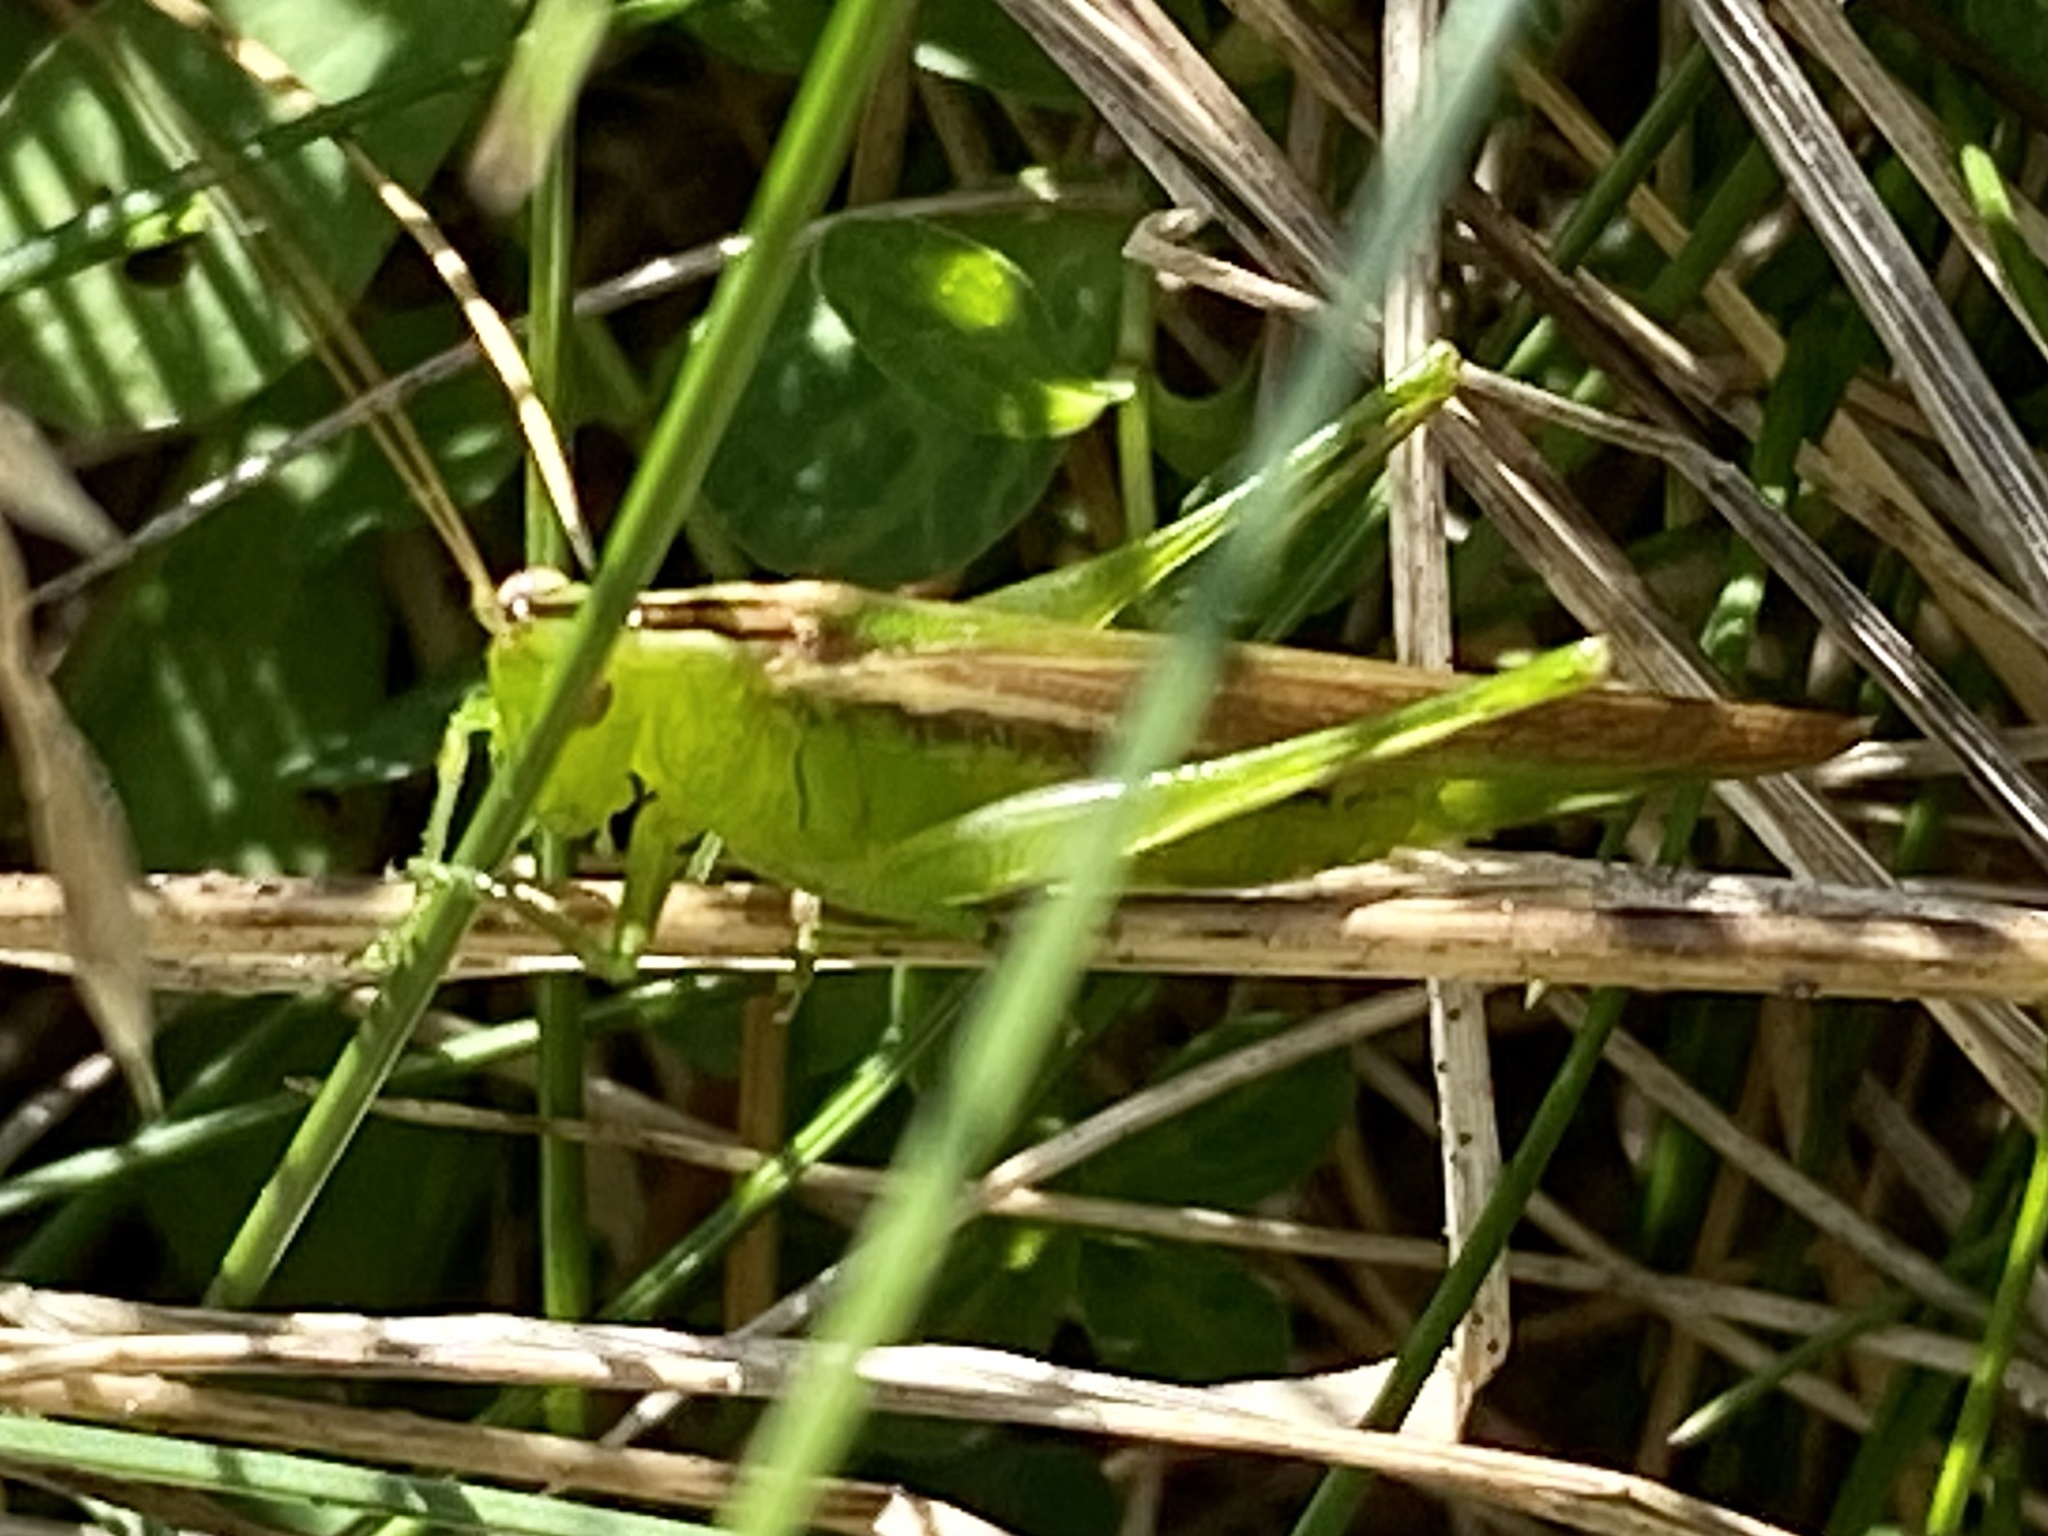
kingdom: Animalia
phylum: Arthropoda
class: Insecta
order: Orthoptera
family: Tettigoniidae
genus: Conocephalus
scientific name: Conocephalus fasciatus
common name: Slender meadow katydid
